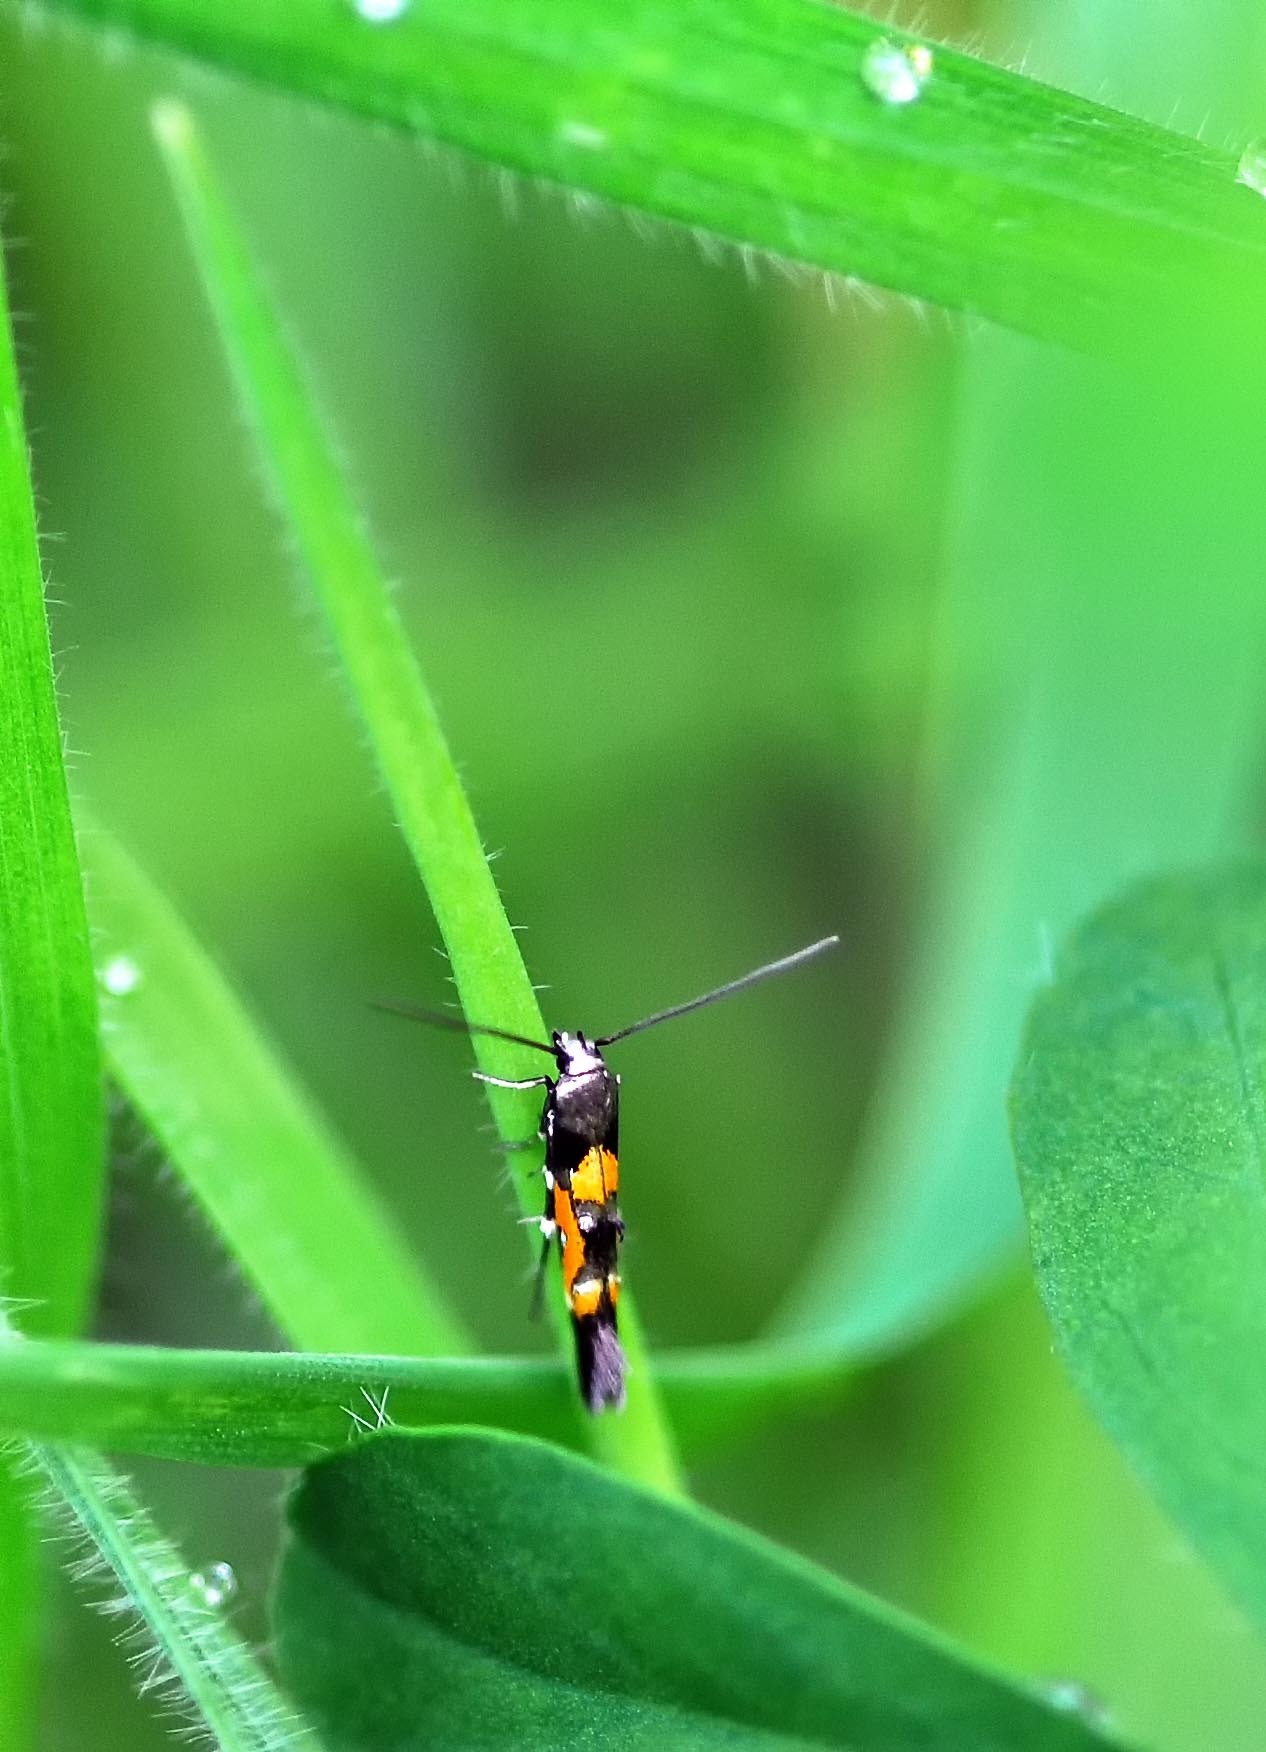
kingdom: Animalia
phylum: Arthropoda
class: Insecta
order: Lepidoptera
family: Momphidae
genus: Mompha
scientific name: Mompha locupletella
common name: Red cosmet
